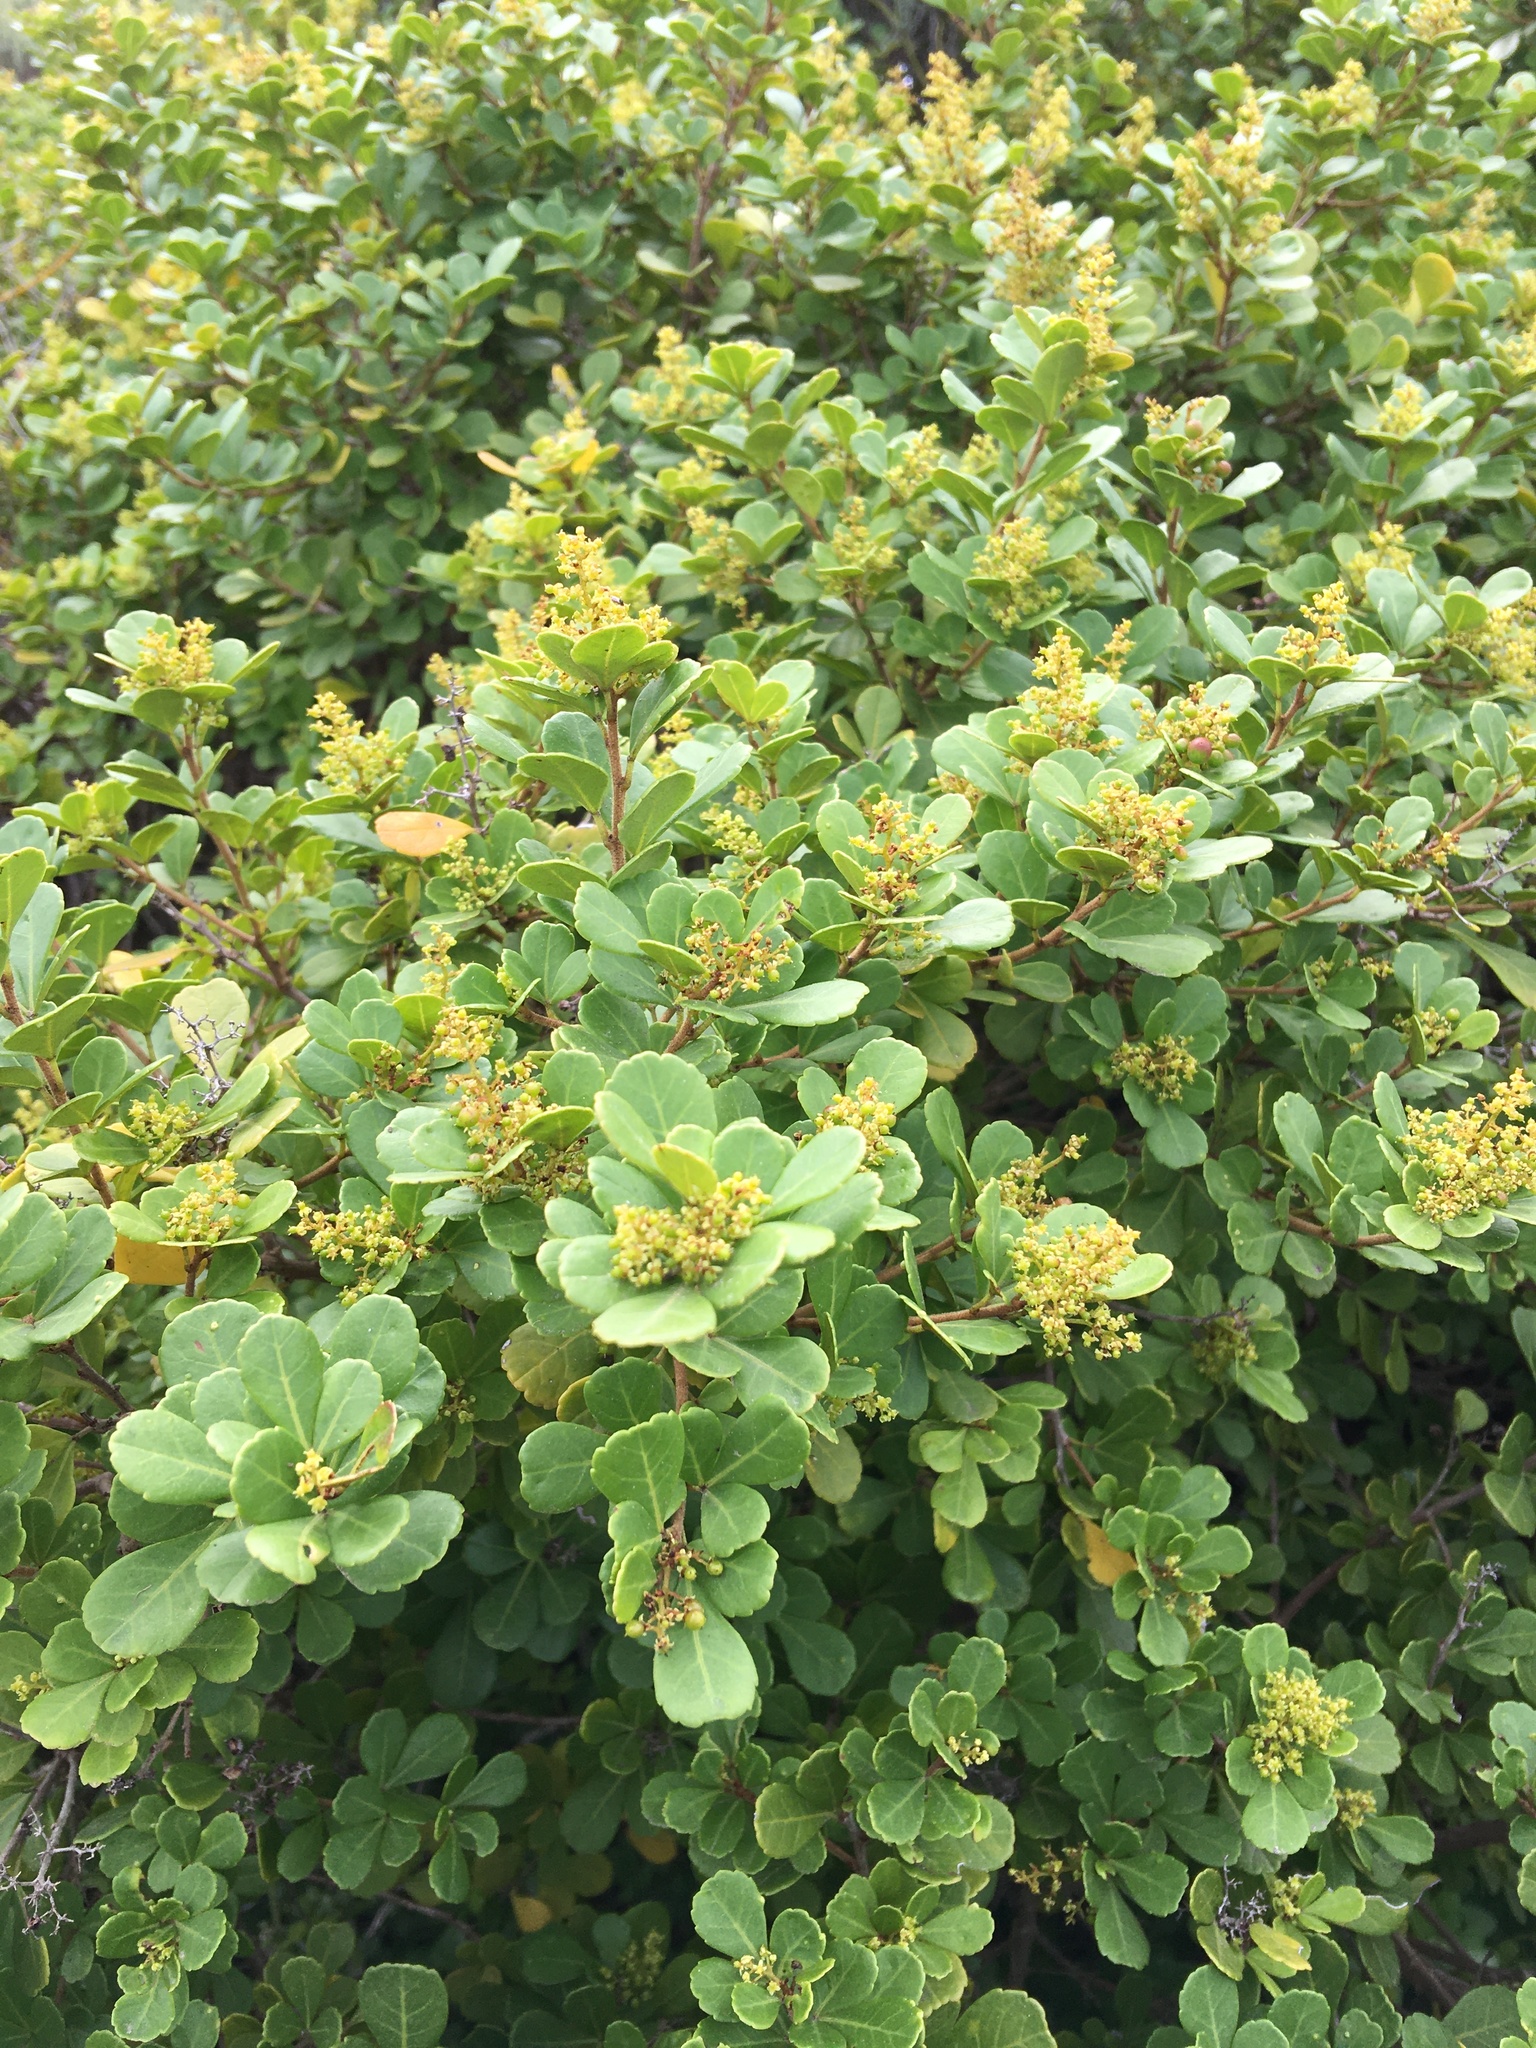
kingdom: Plantae
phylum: Tracheophyta
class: Magnoliopsida
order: Sapindales
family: Anacardiaceae
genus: Searsia
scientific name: Searsia crenata
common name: Crowberry
